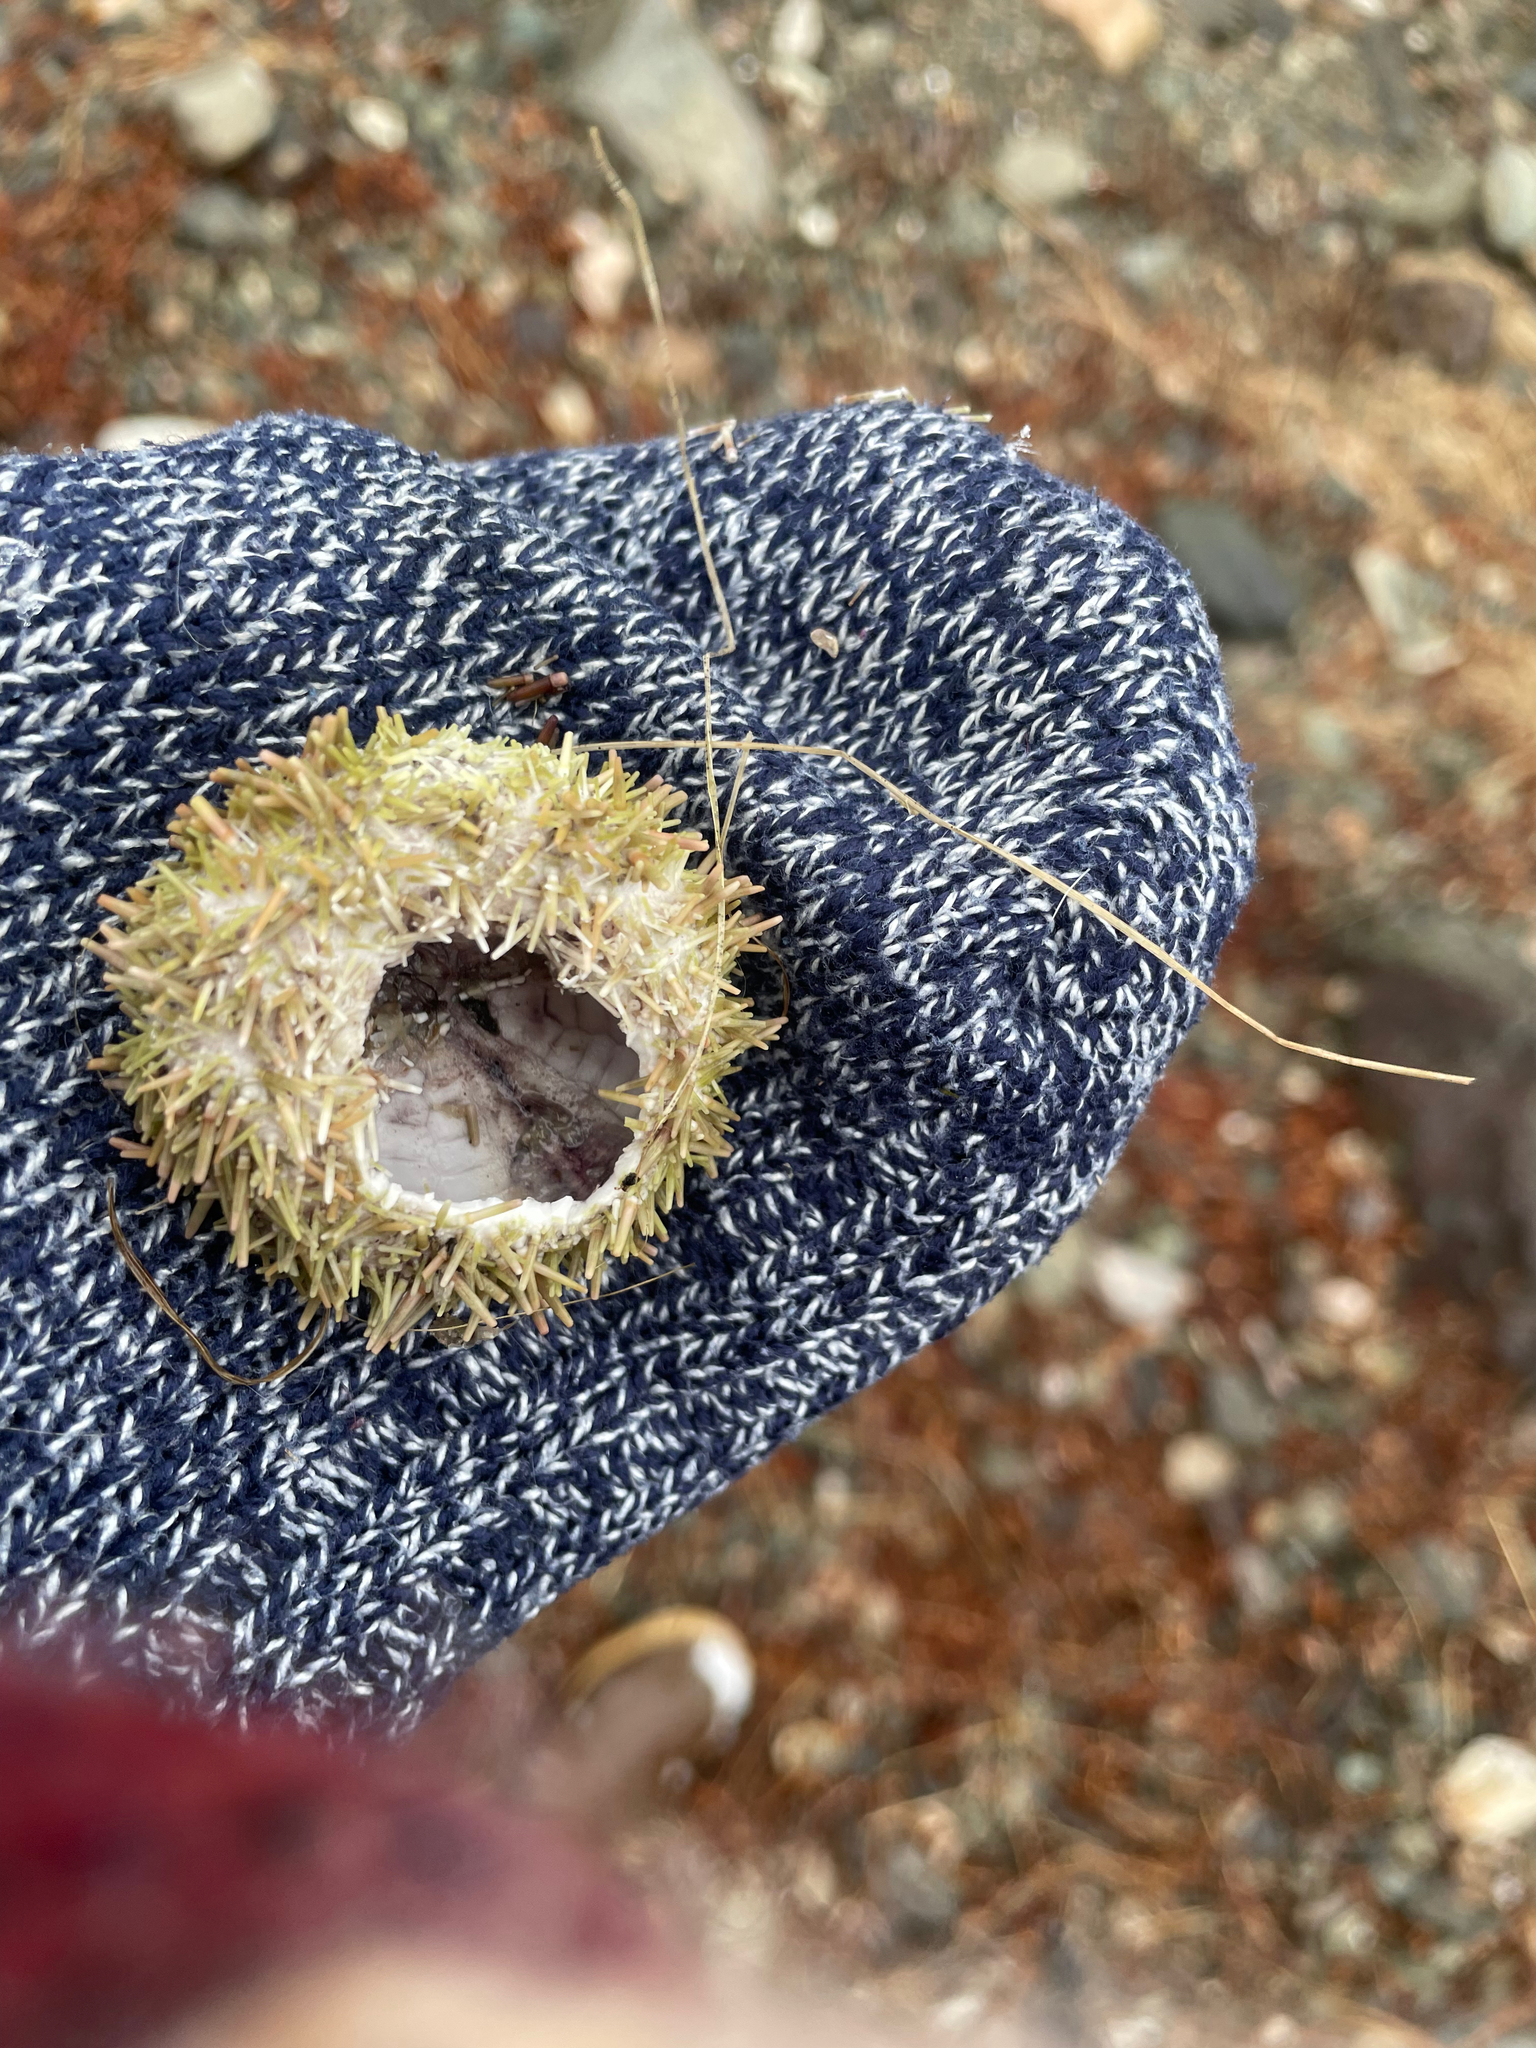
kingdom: Animalia
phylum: Echinodermata
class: Echinoidea
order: Camarodonta
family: Strongylocentrotidae
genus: Strongylocentrotus
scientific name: Strongylocentrotus droebachiensis
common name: Northern sea urchin
